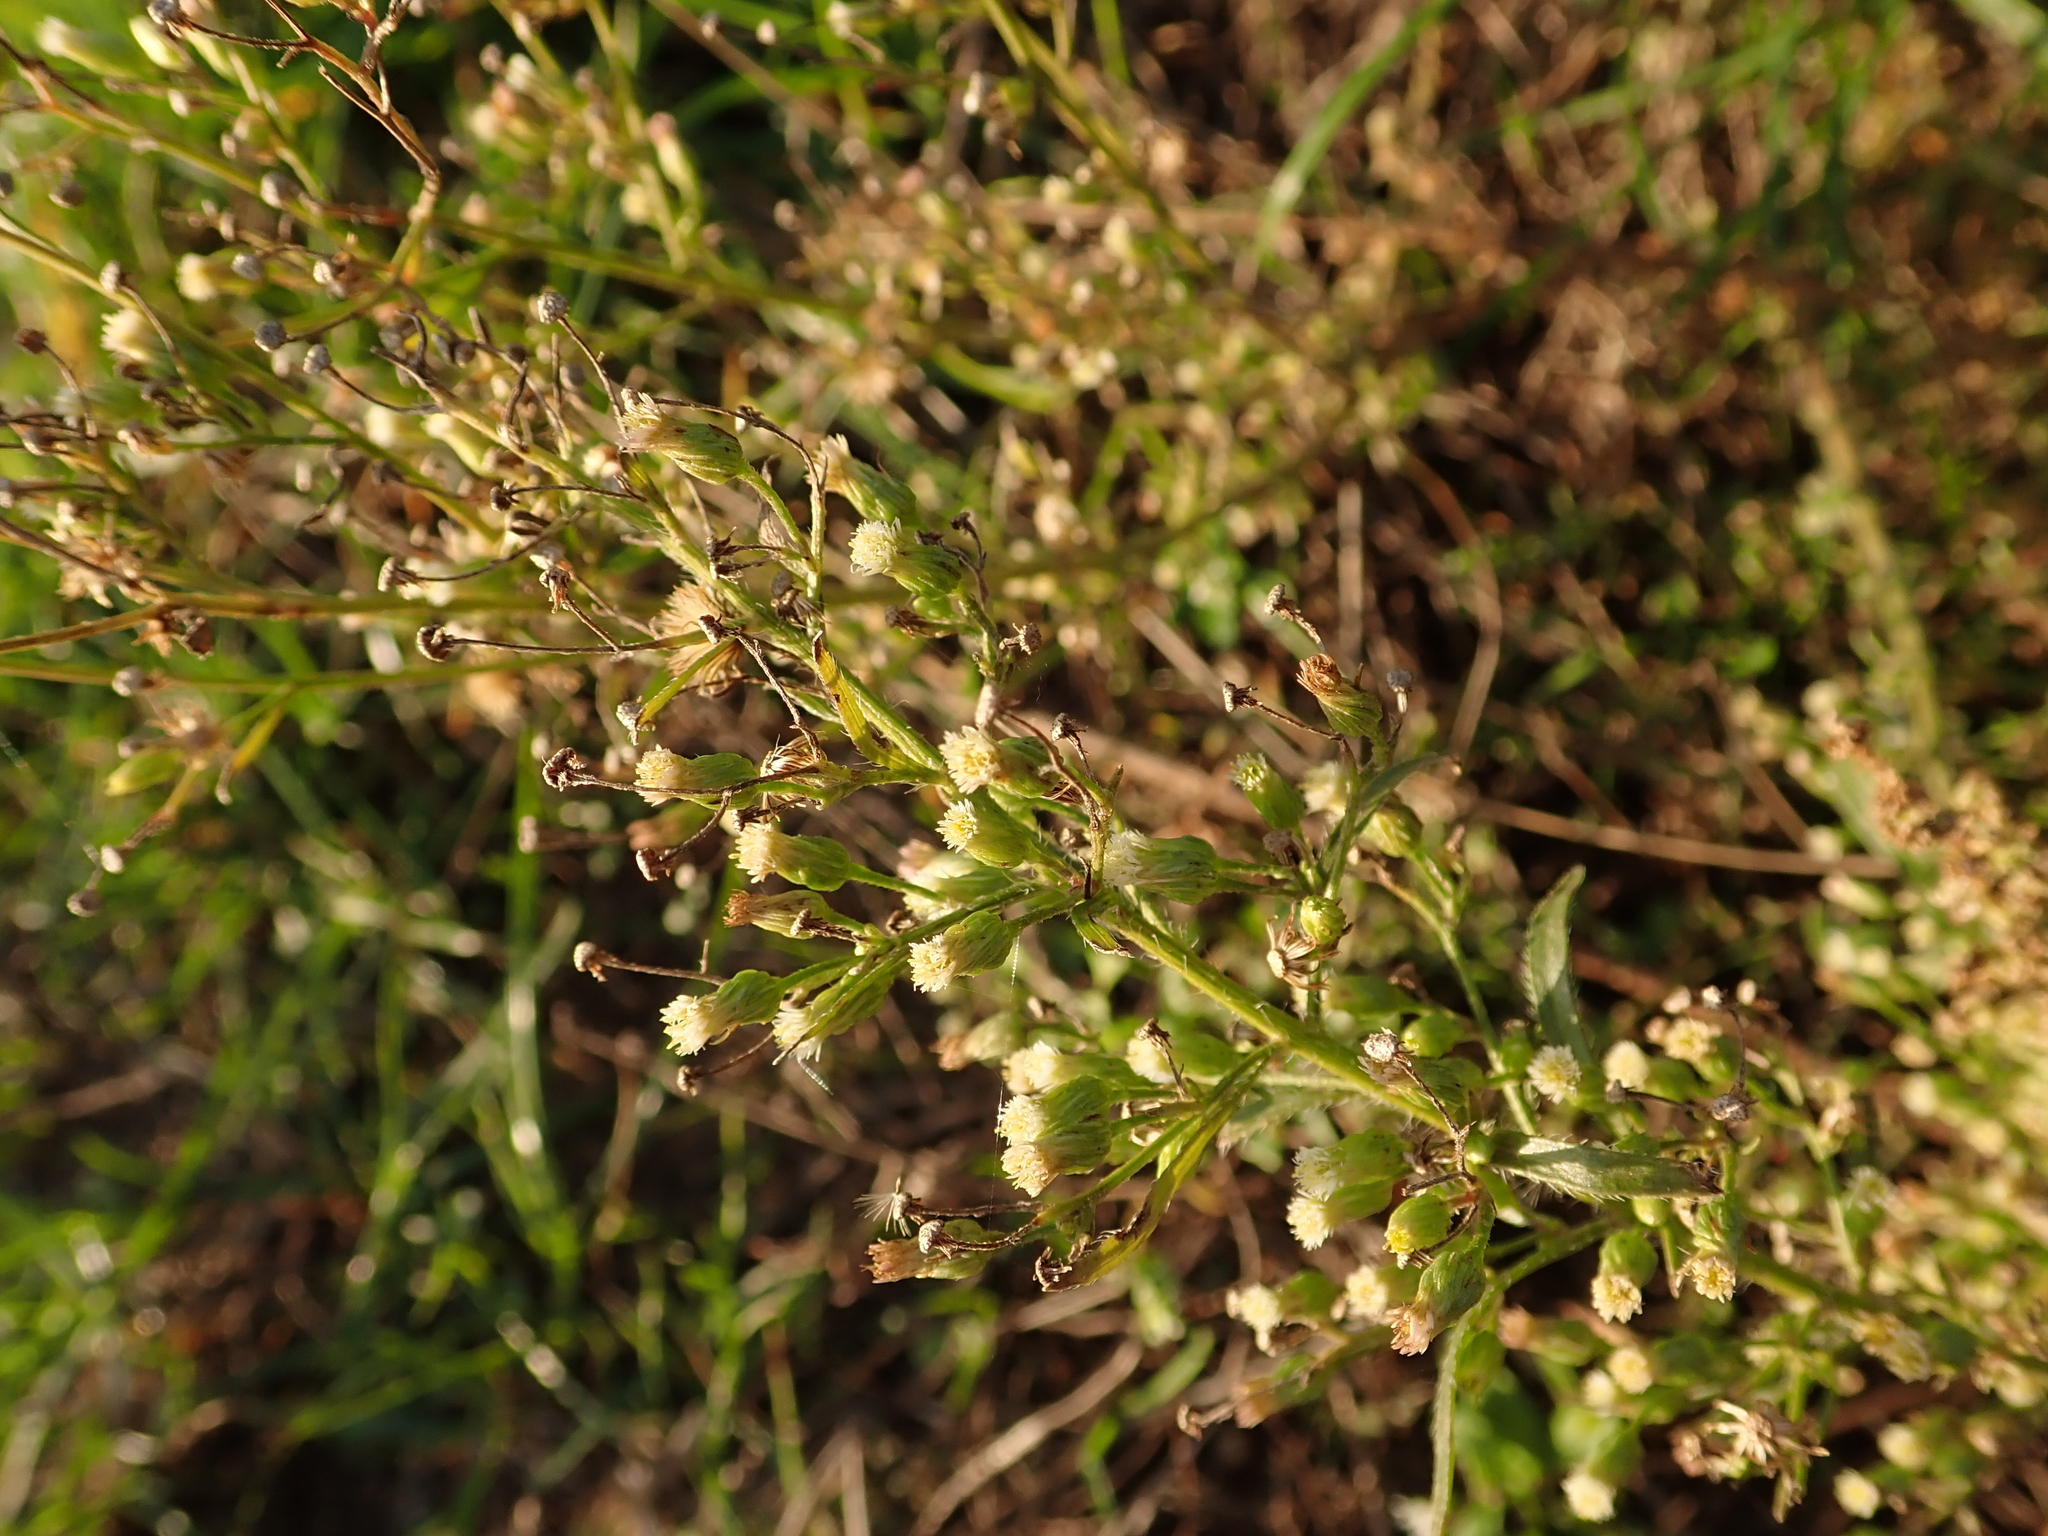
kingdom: Plantae
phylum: Tracheophyta
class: Magnoliopsida
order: Asterales
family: Asteraceae
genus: Erigeron
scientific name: Erigeron canadensis
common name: Canadian fleabane
